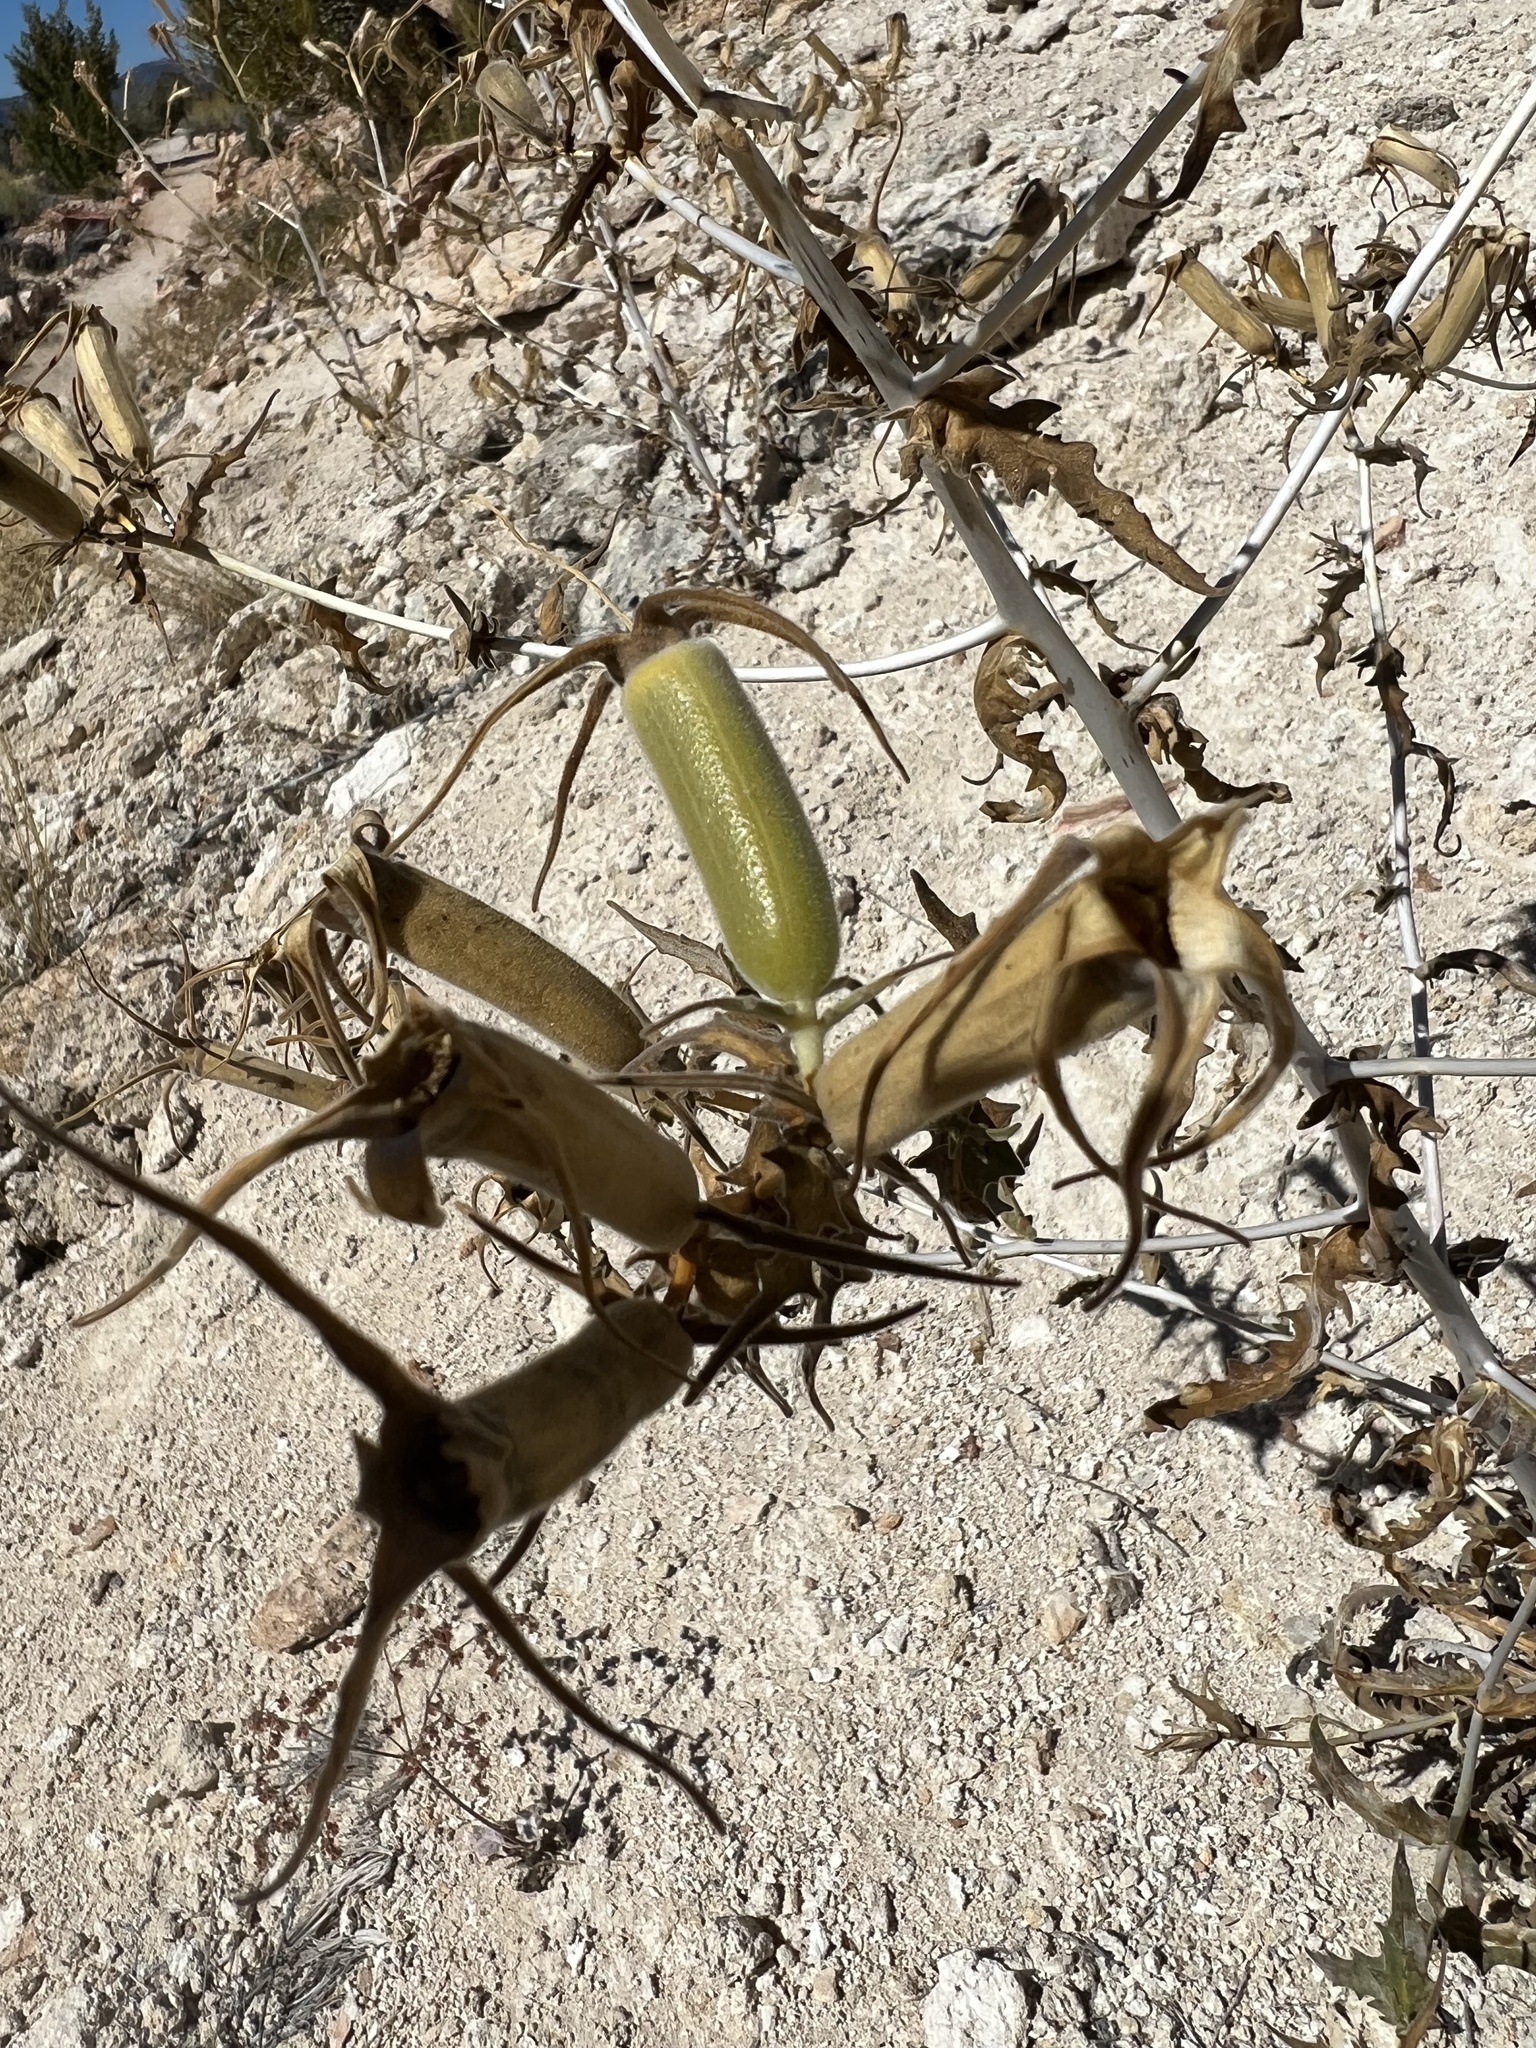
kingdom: Plantae
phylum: Tracheophyta
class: Magnoliopsida
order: Cornales
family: Loasaceae
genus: Mentzelia
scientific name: Mentzelia laevicaulis
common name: Smooth-stem blazingstar
